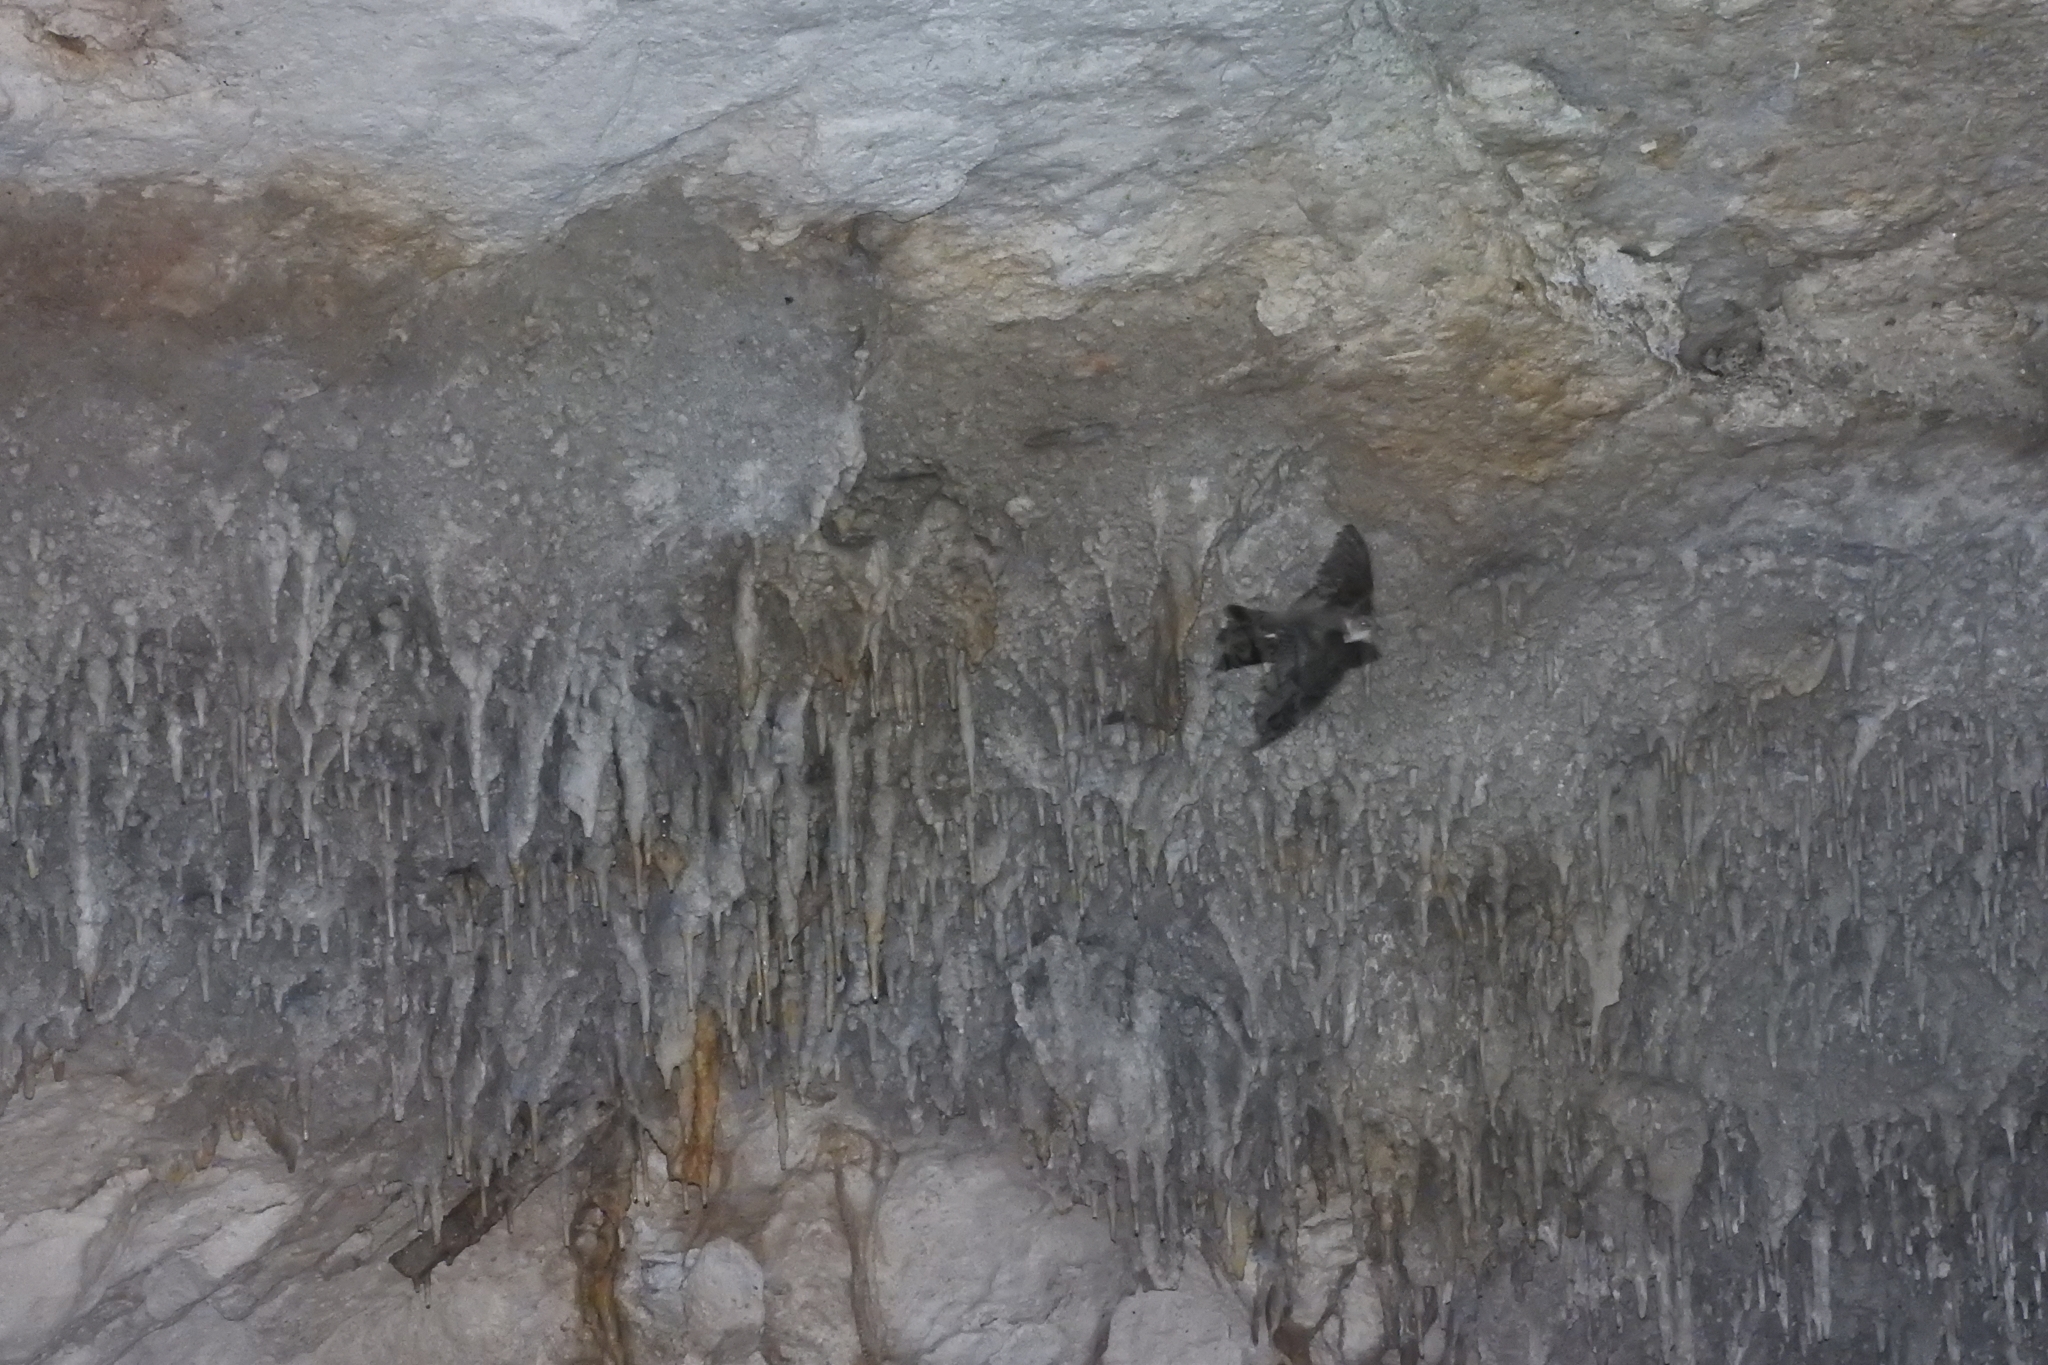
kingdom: Animalia
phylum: Chordata
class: Aves
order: Passeriformes
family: Hirundinidae
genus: Progne
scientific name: Progne chalybea
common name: Grey-breasted martin
